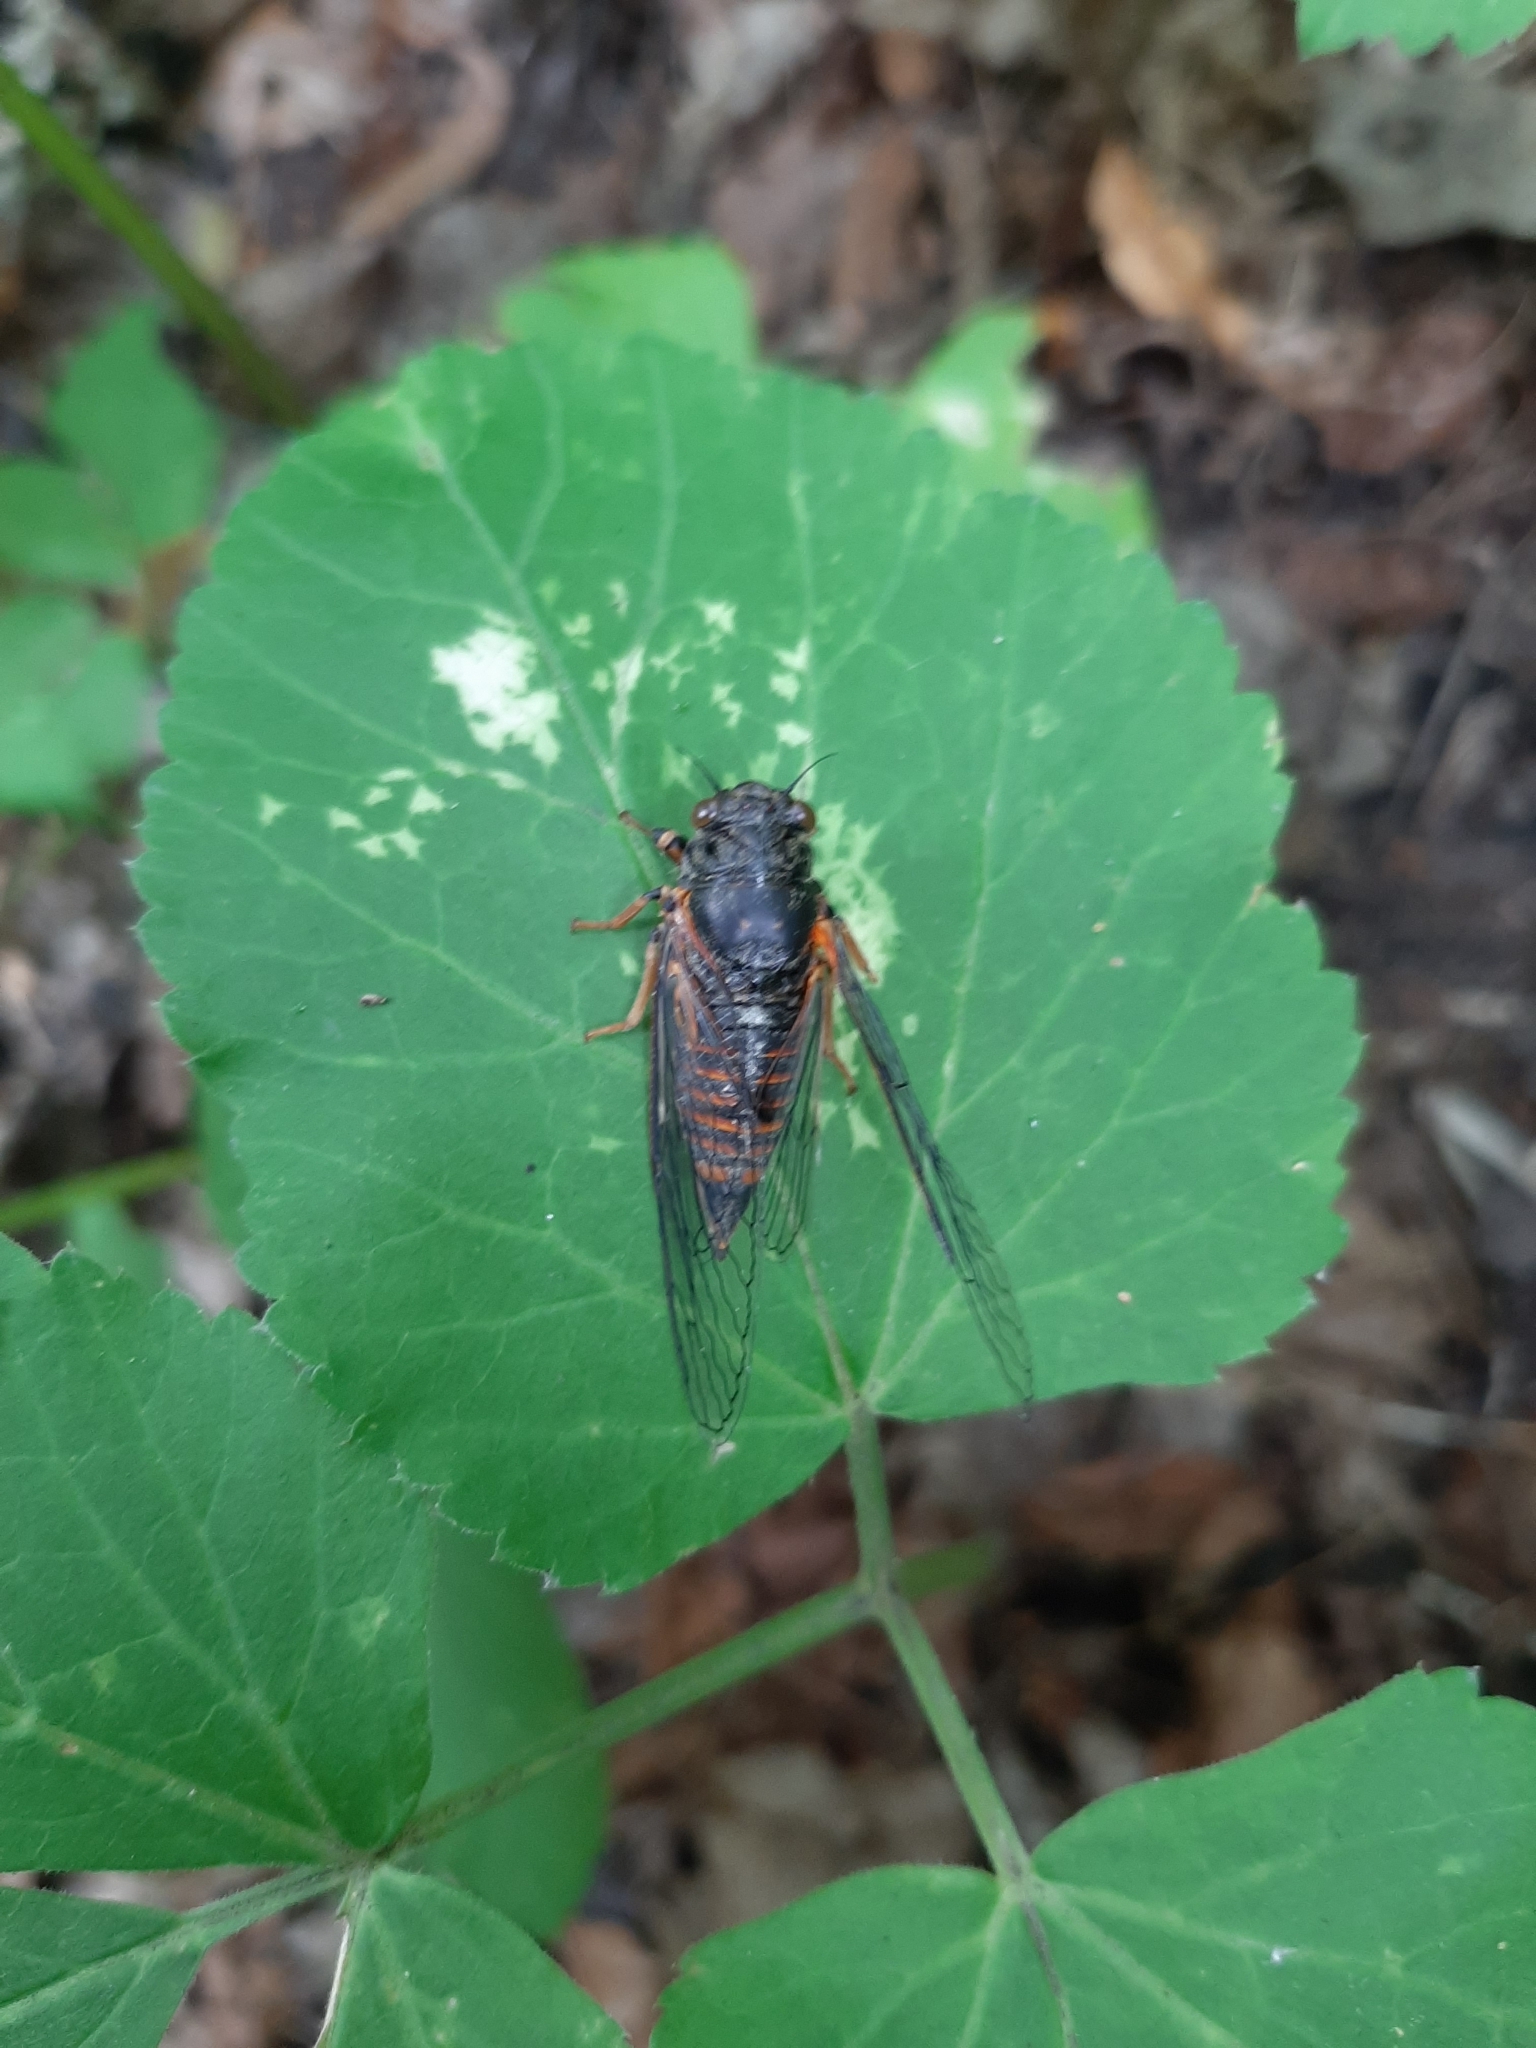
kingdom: Animalia
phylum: Arthropoda
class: Insecta
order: Hemiptera
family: Cicadidae
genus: Cicadetta
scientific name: Cicadetta montana
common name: New forest cicada
